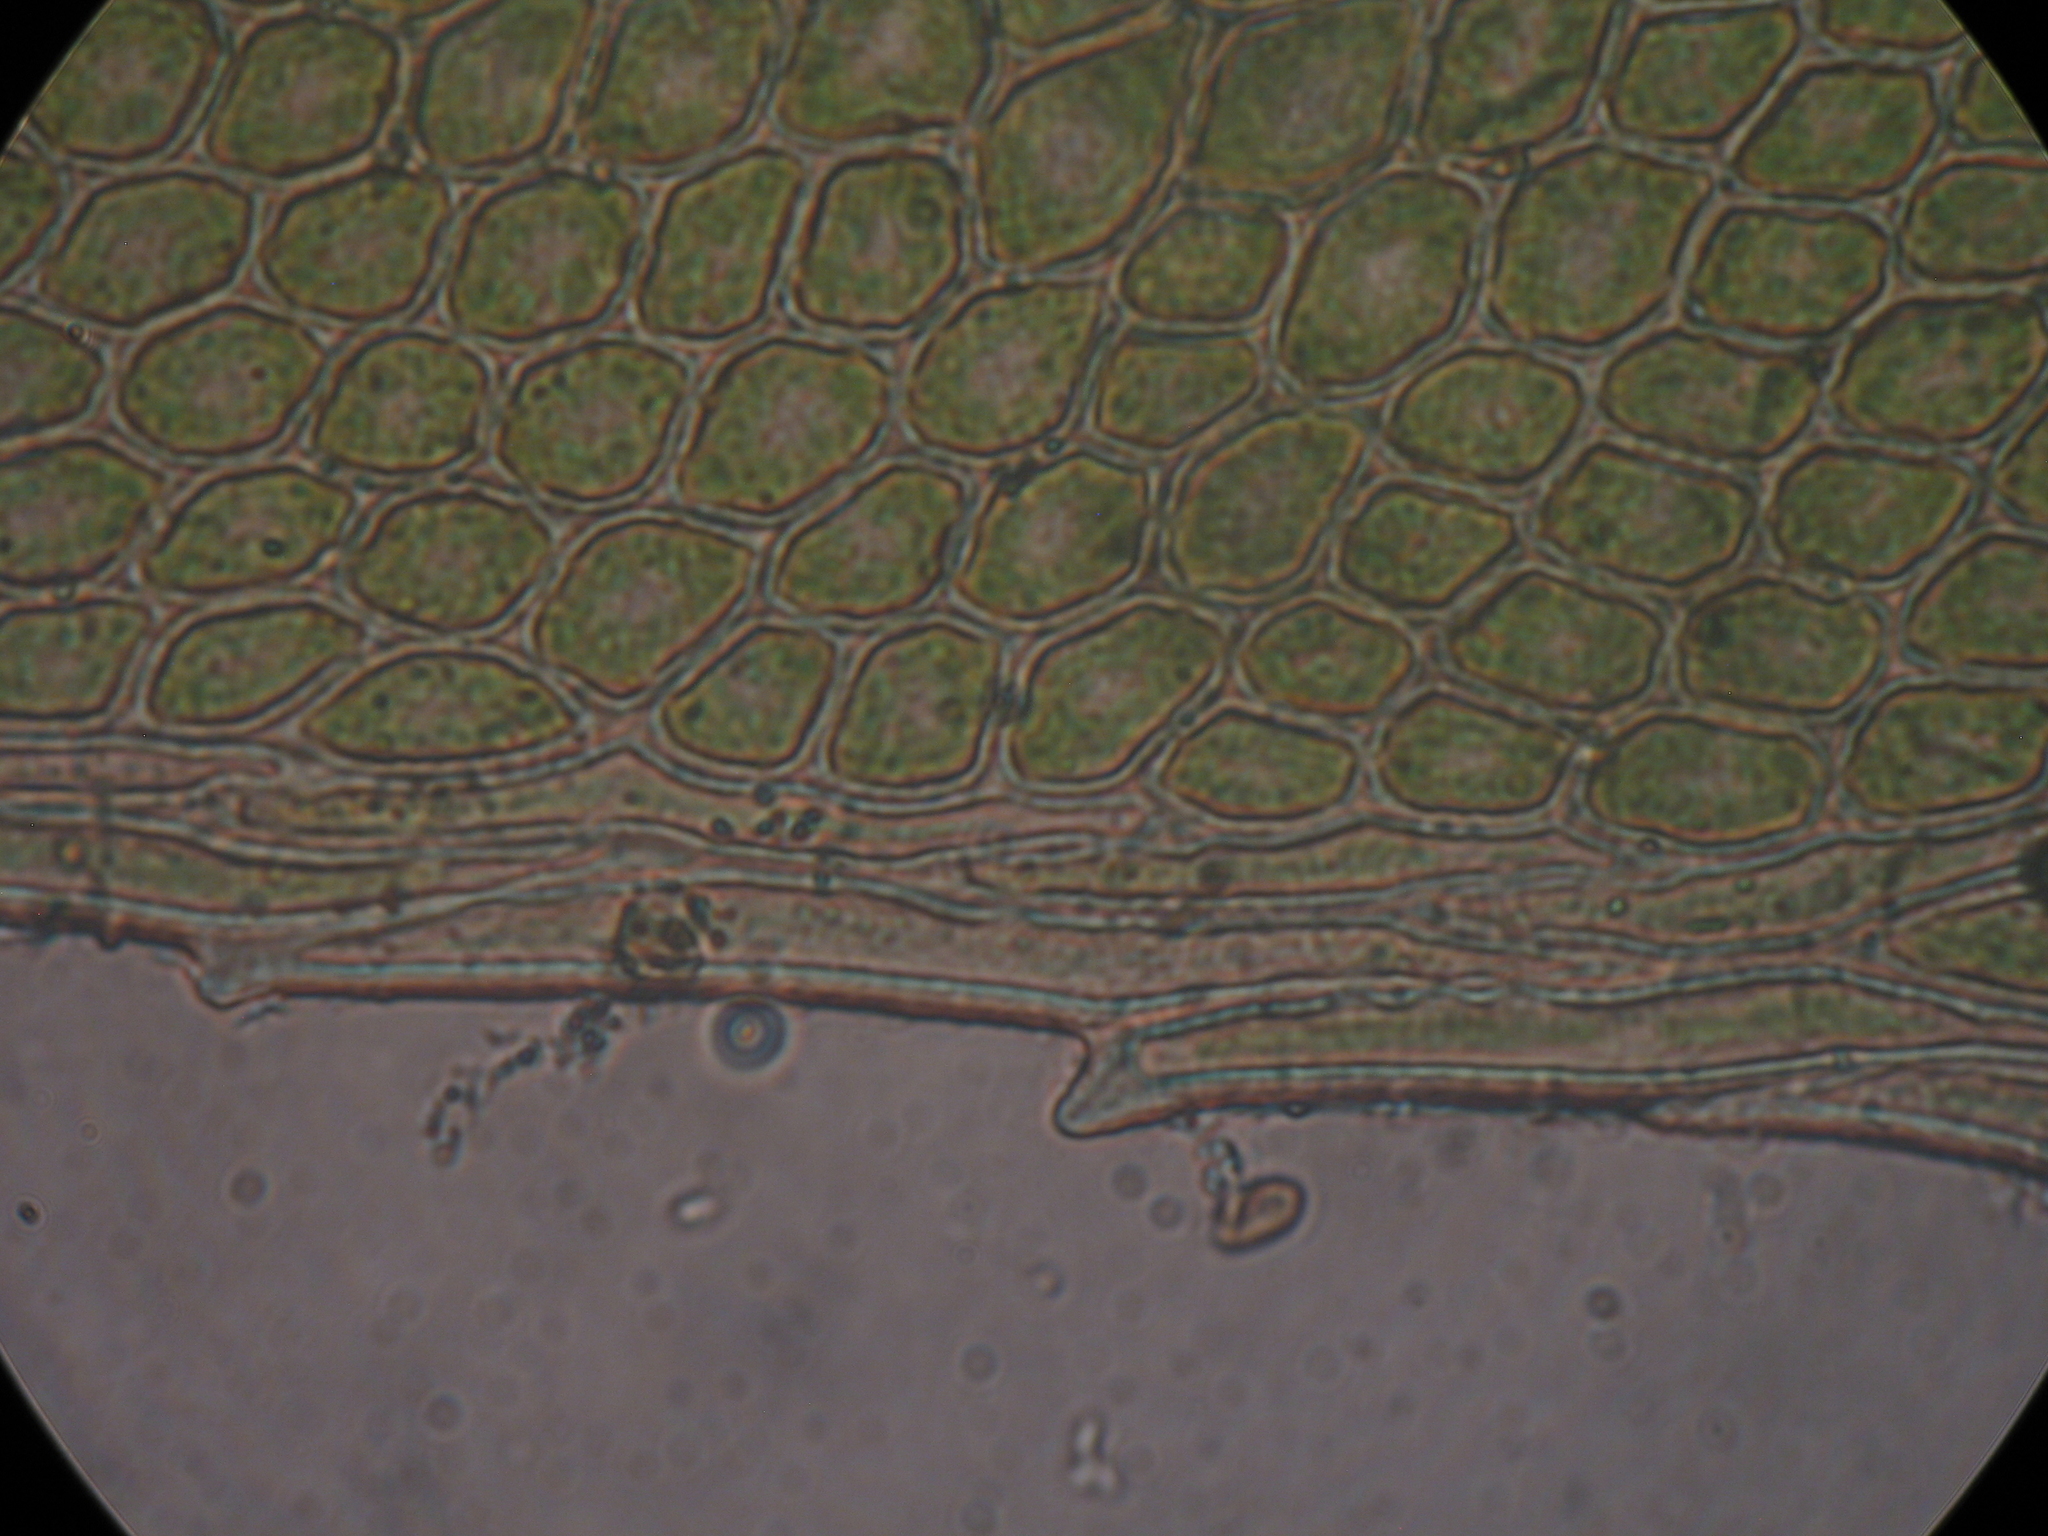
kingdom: Plantae
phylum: Bryophyta
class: Bryopsida
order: Hypopterygiales
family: Hypopterygiaceae
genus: Hypopterygium
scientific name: Hypopterygium tamarisci
